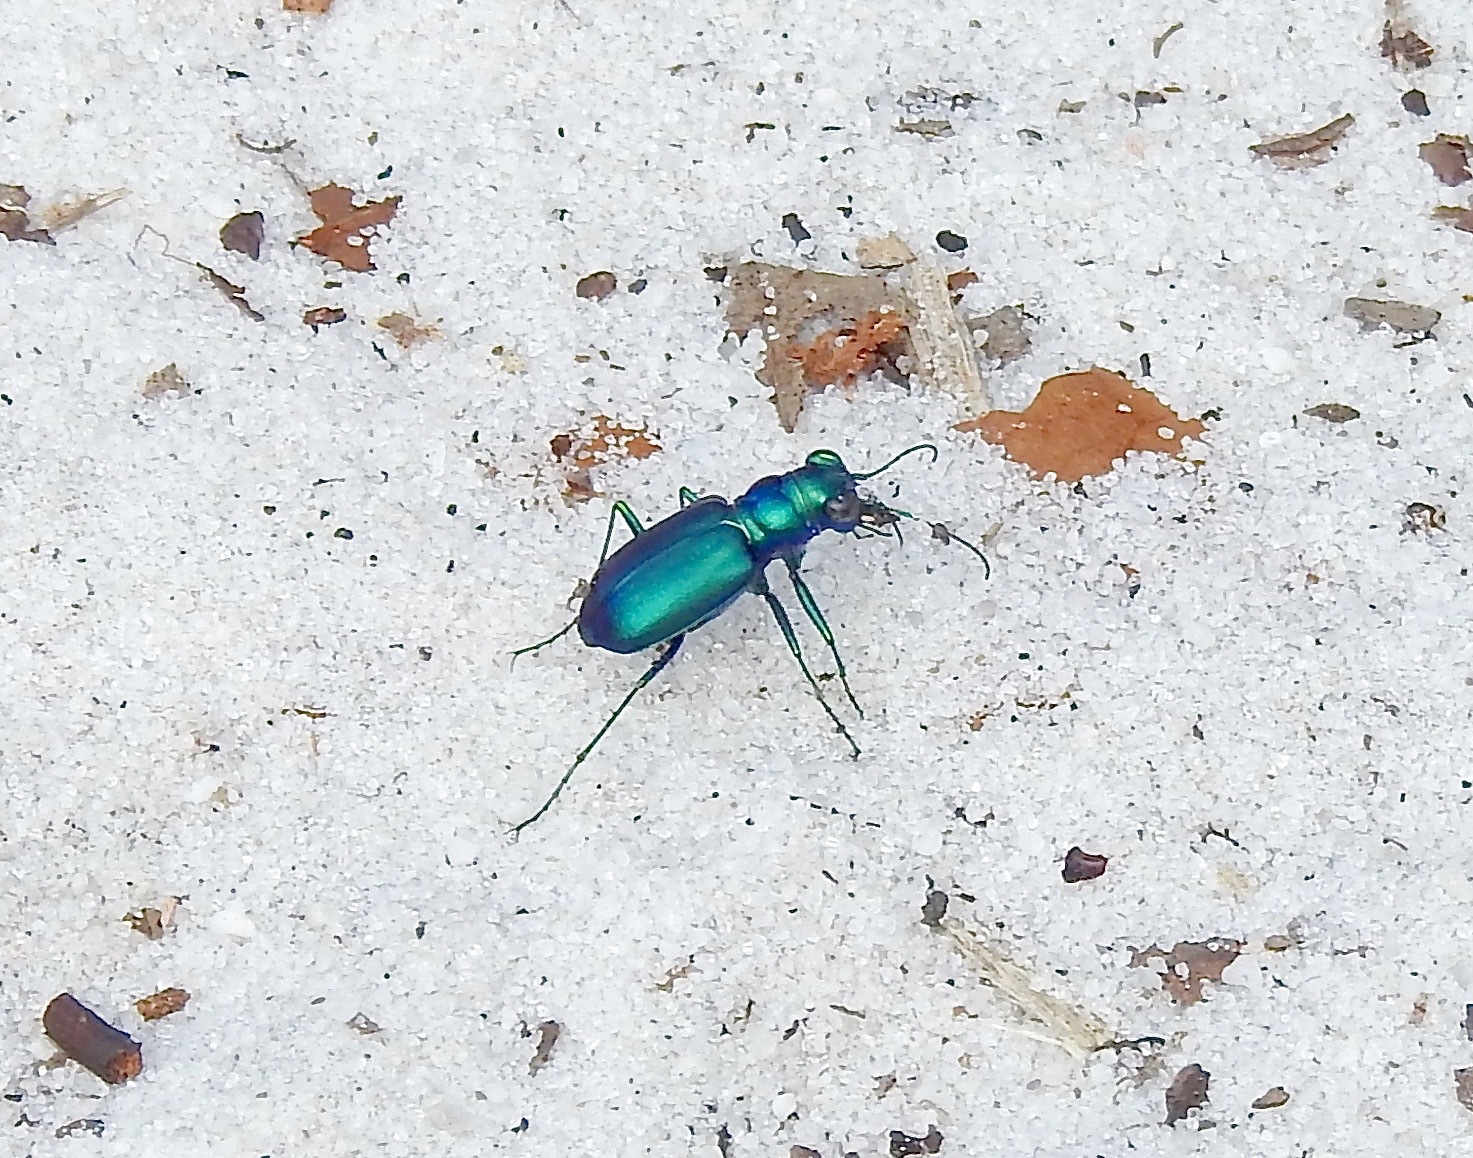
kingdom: Animalia
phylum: Arthropoda
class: Insecta
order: Coleoptera
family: Carabidae
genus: Cicindela
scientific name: Cicindela scutellaris
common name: Festive tiger beetle
